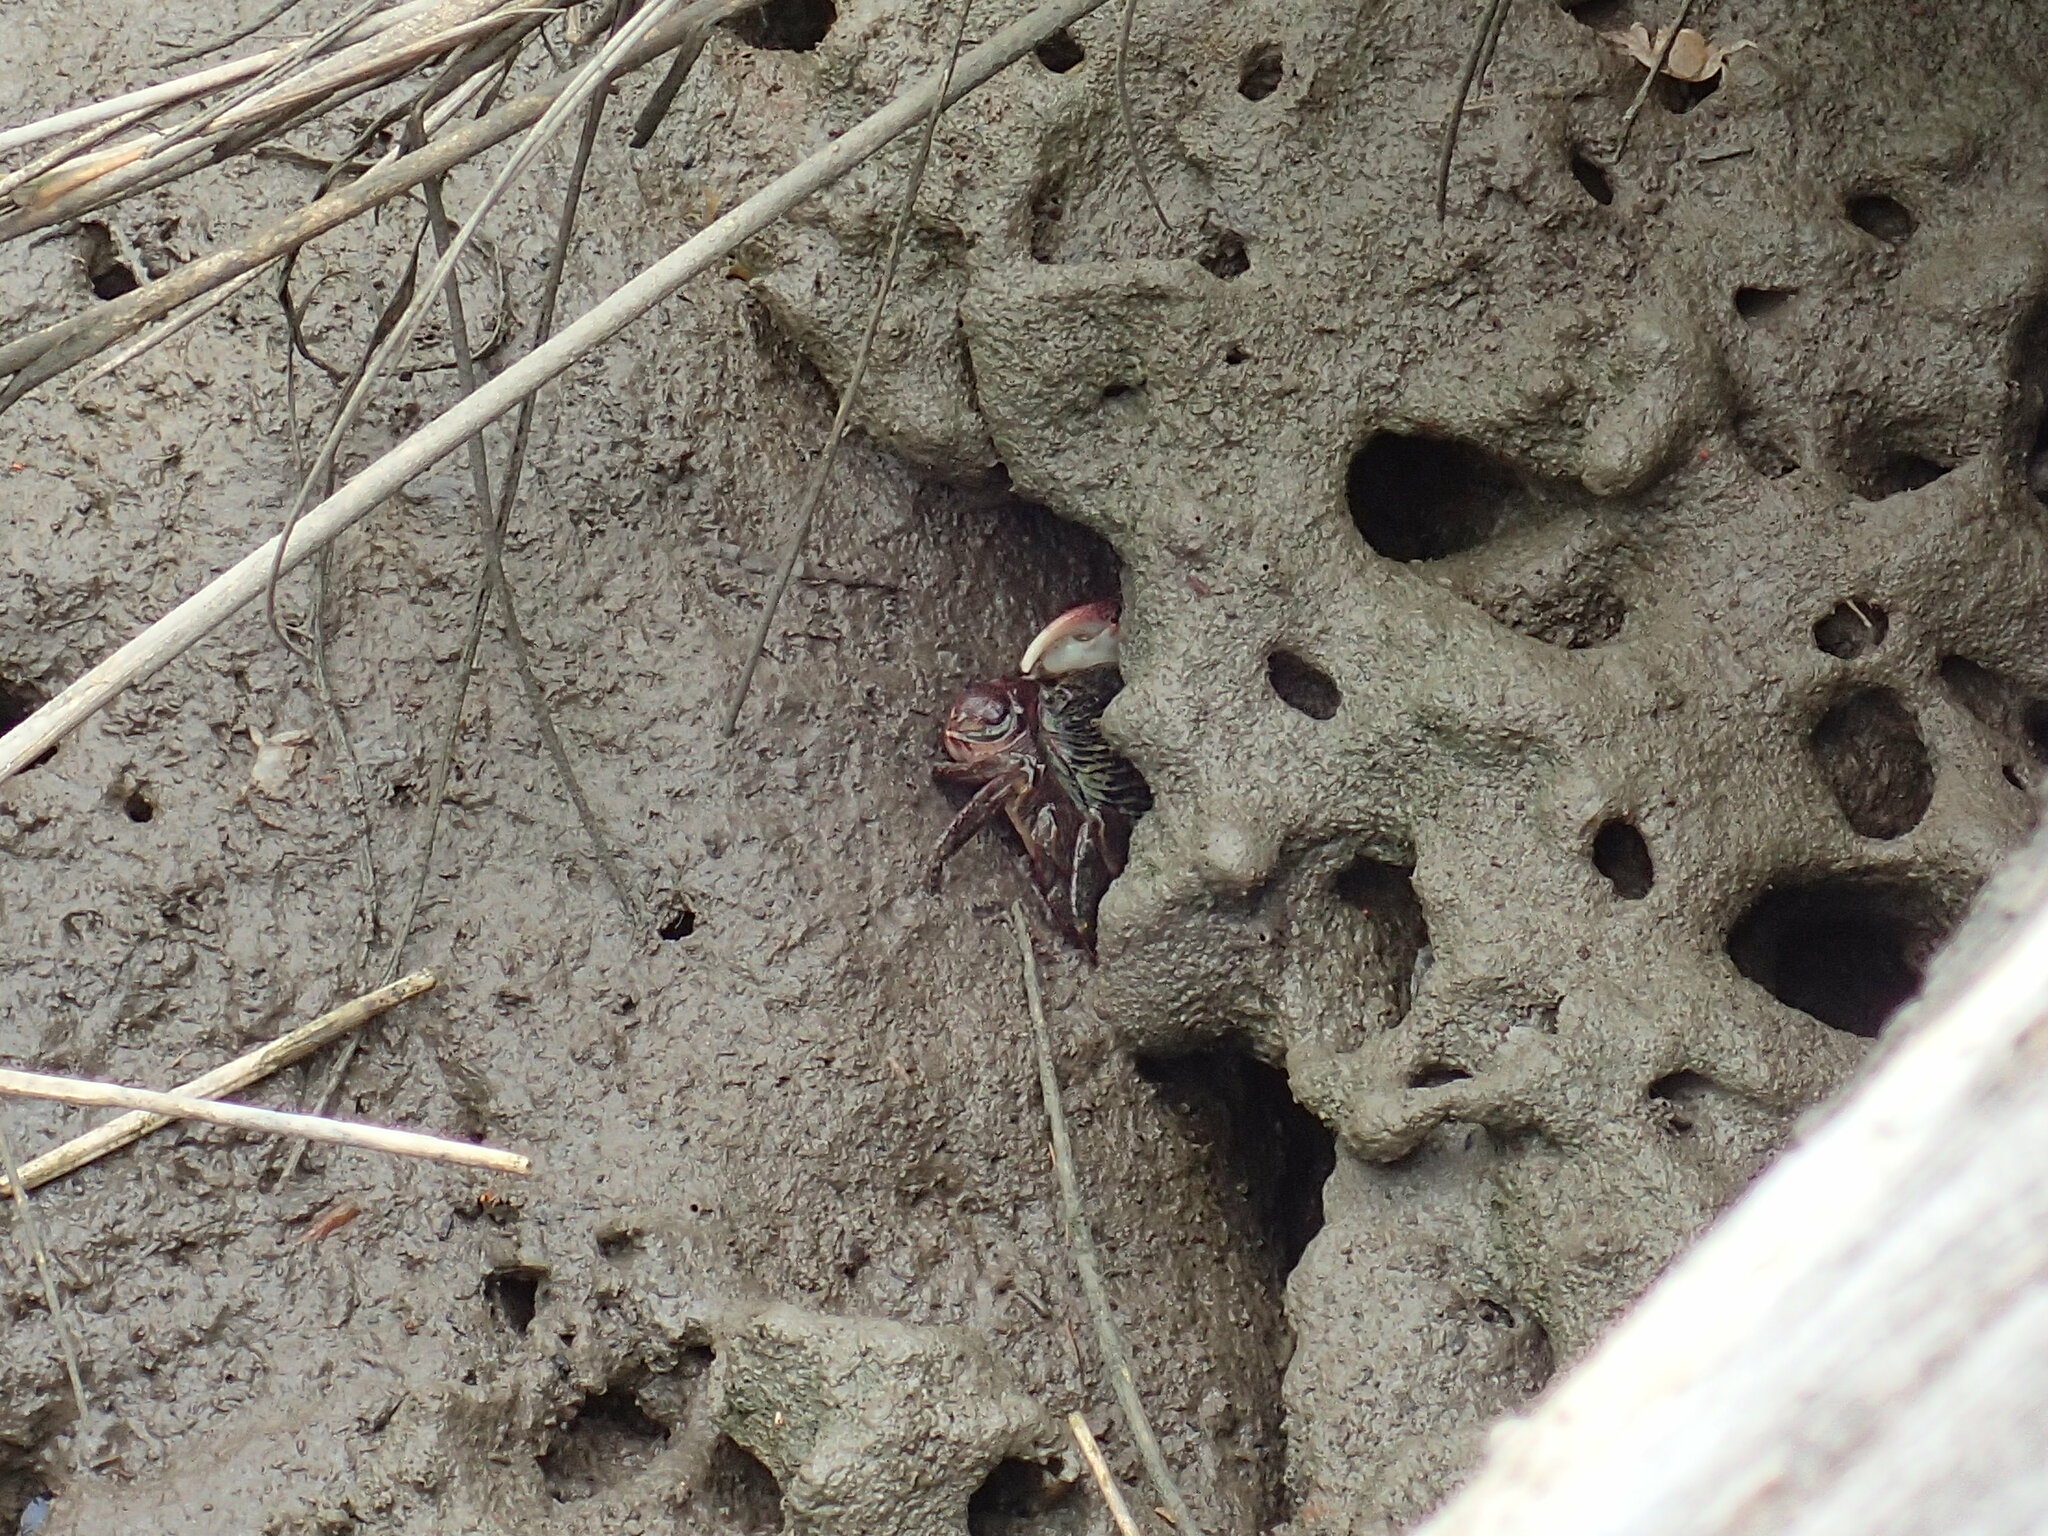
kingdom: Animalia
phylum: Arthropoda
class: Malacostraca
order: Decapoda
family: Grapsidae
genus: Pachygrapsus
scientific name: Pachygrapsus crassipes
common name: Striped shore crab
